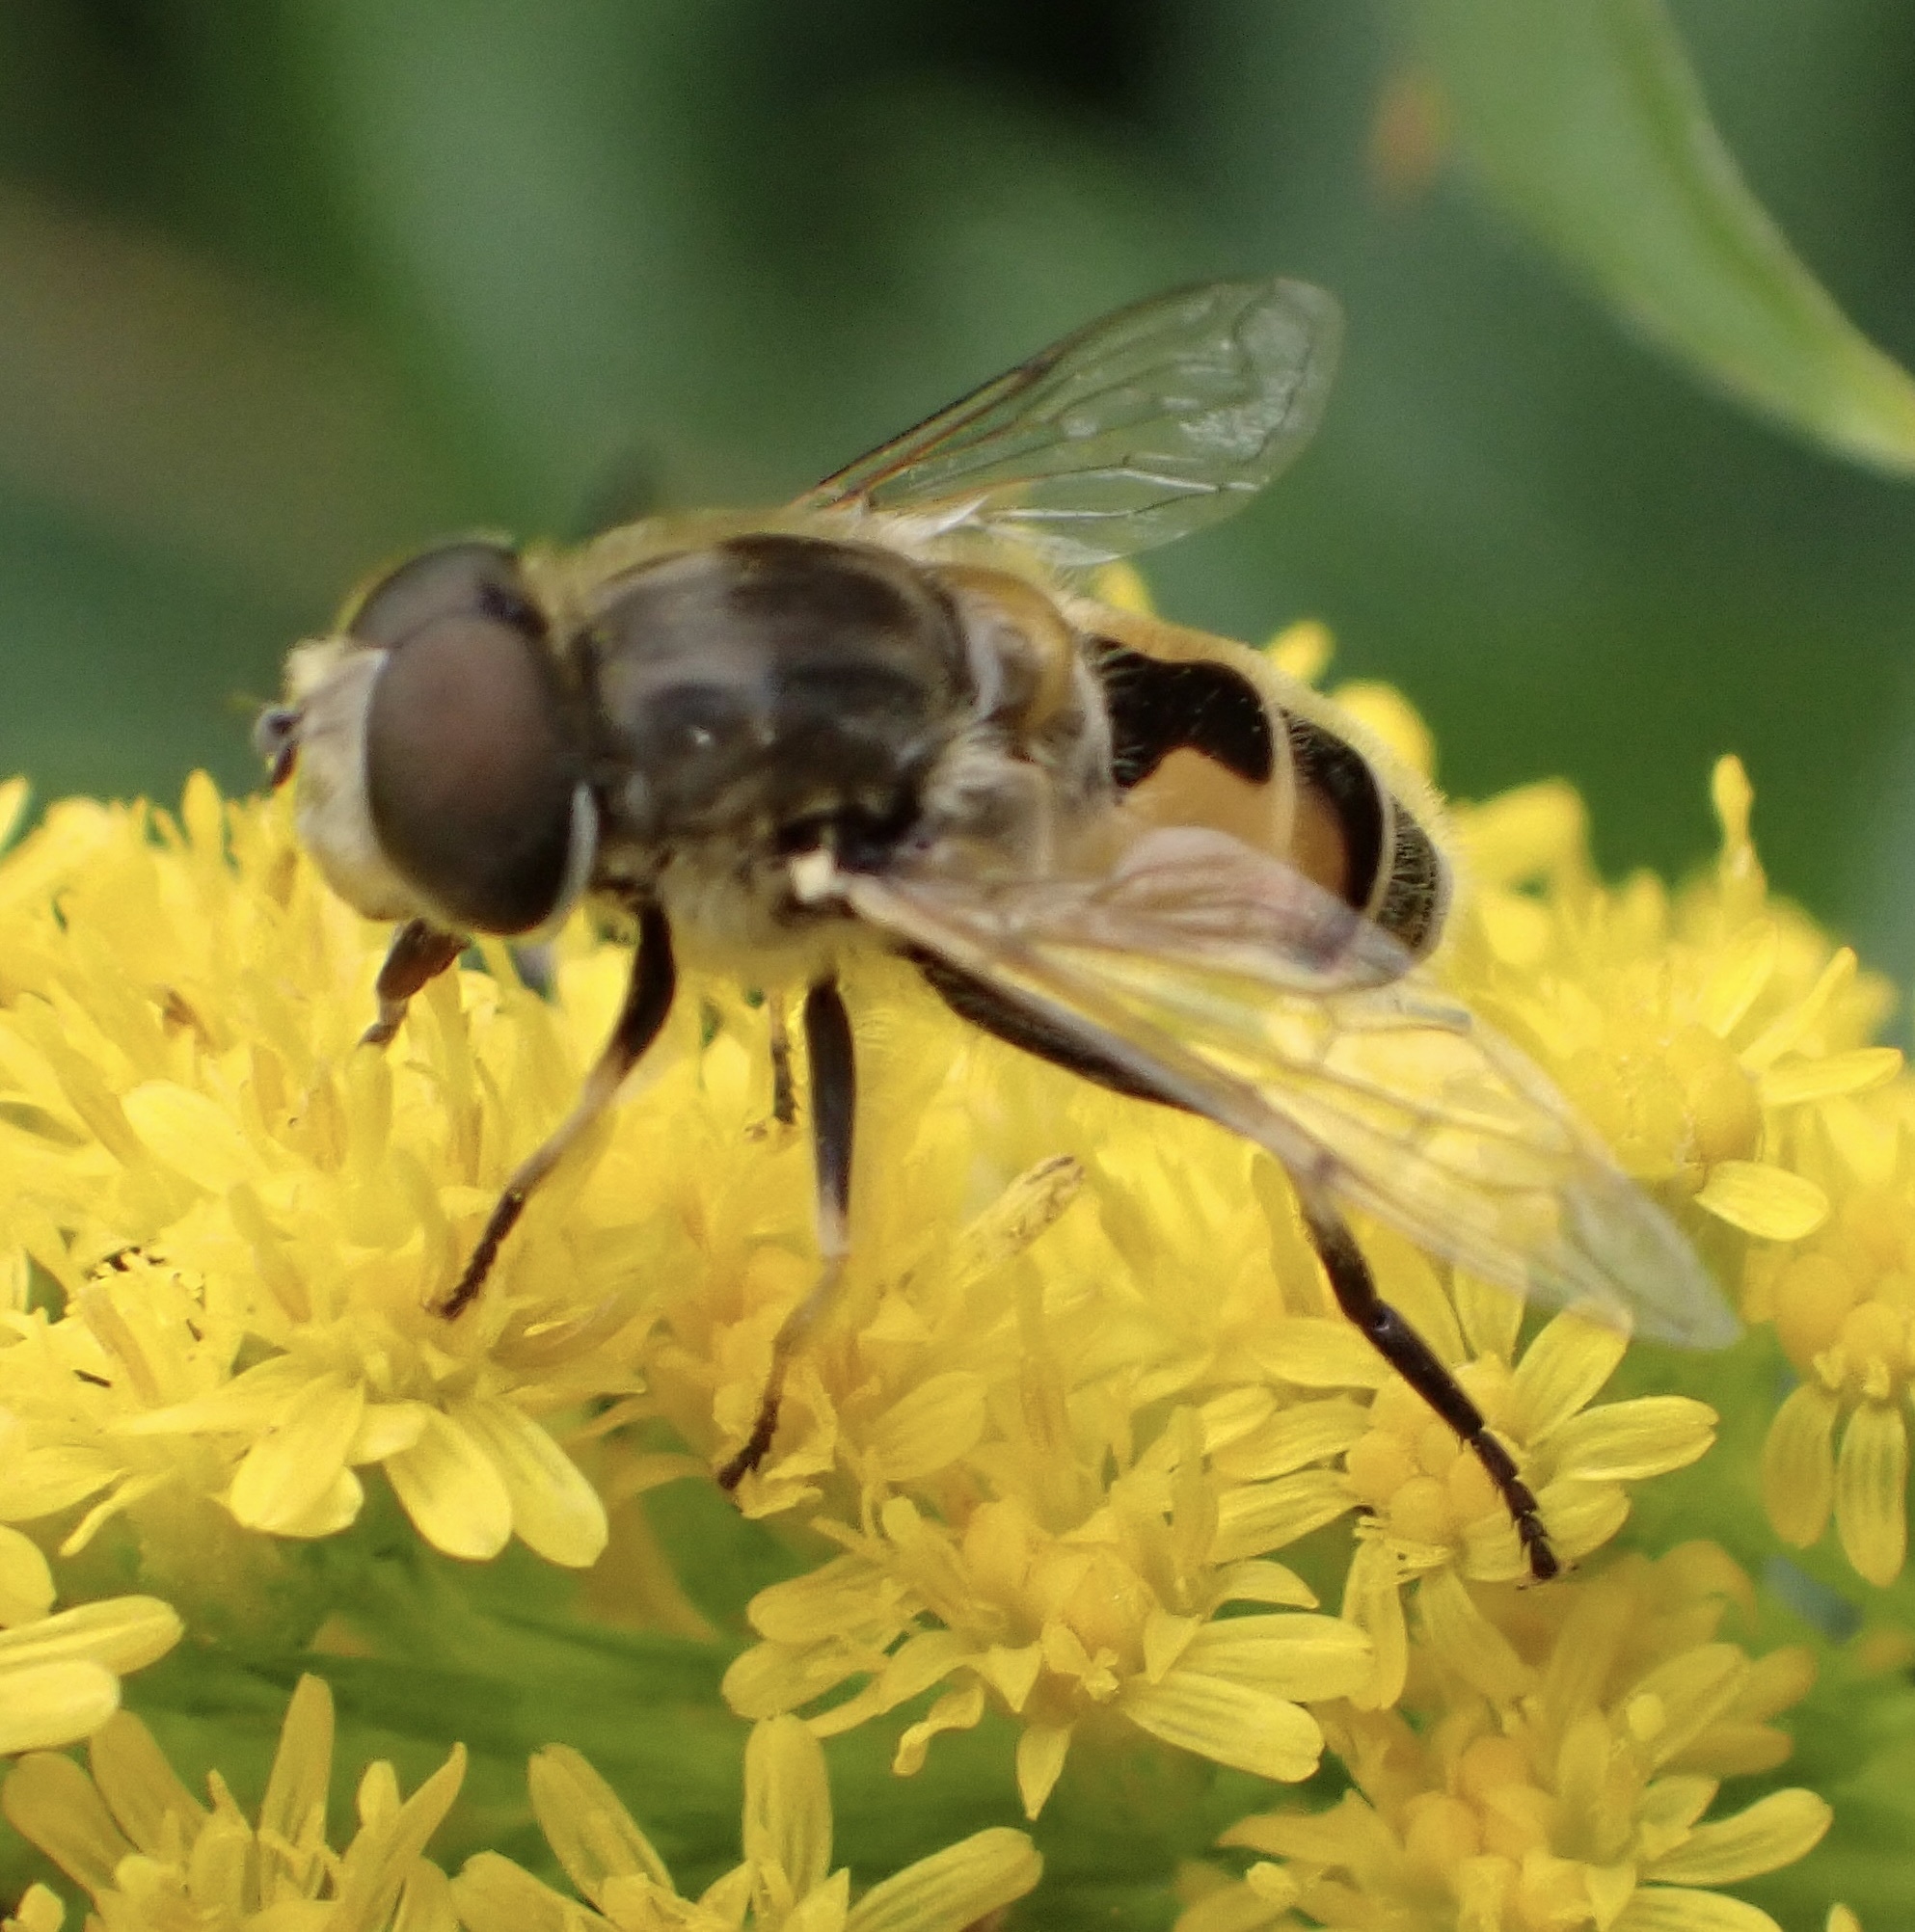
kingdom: Animalia
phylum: Arthropoda
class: Insecta
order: Diptera
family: Syrphidae
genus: Eristalis
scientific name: Eristalis arbustorum
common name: Hover fly
